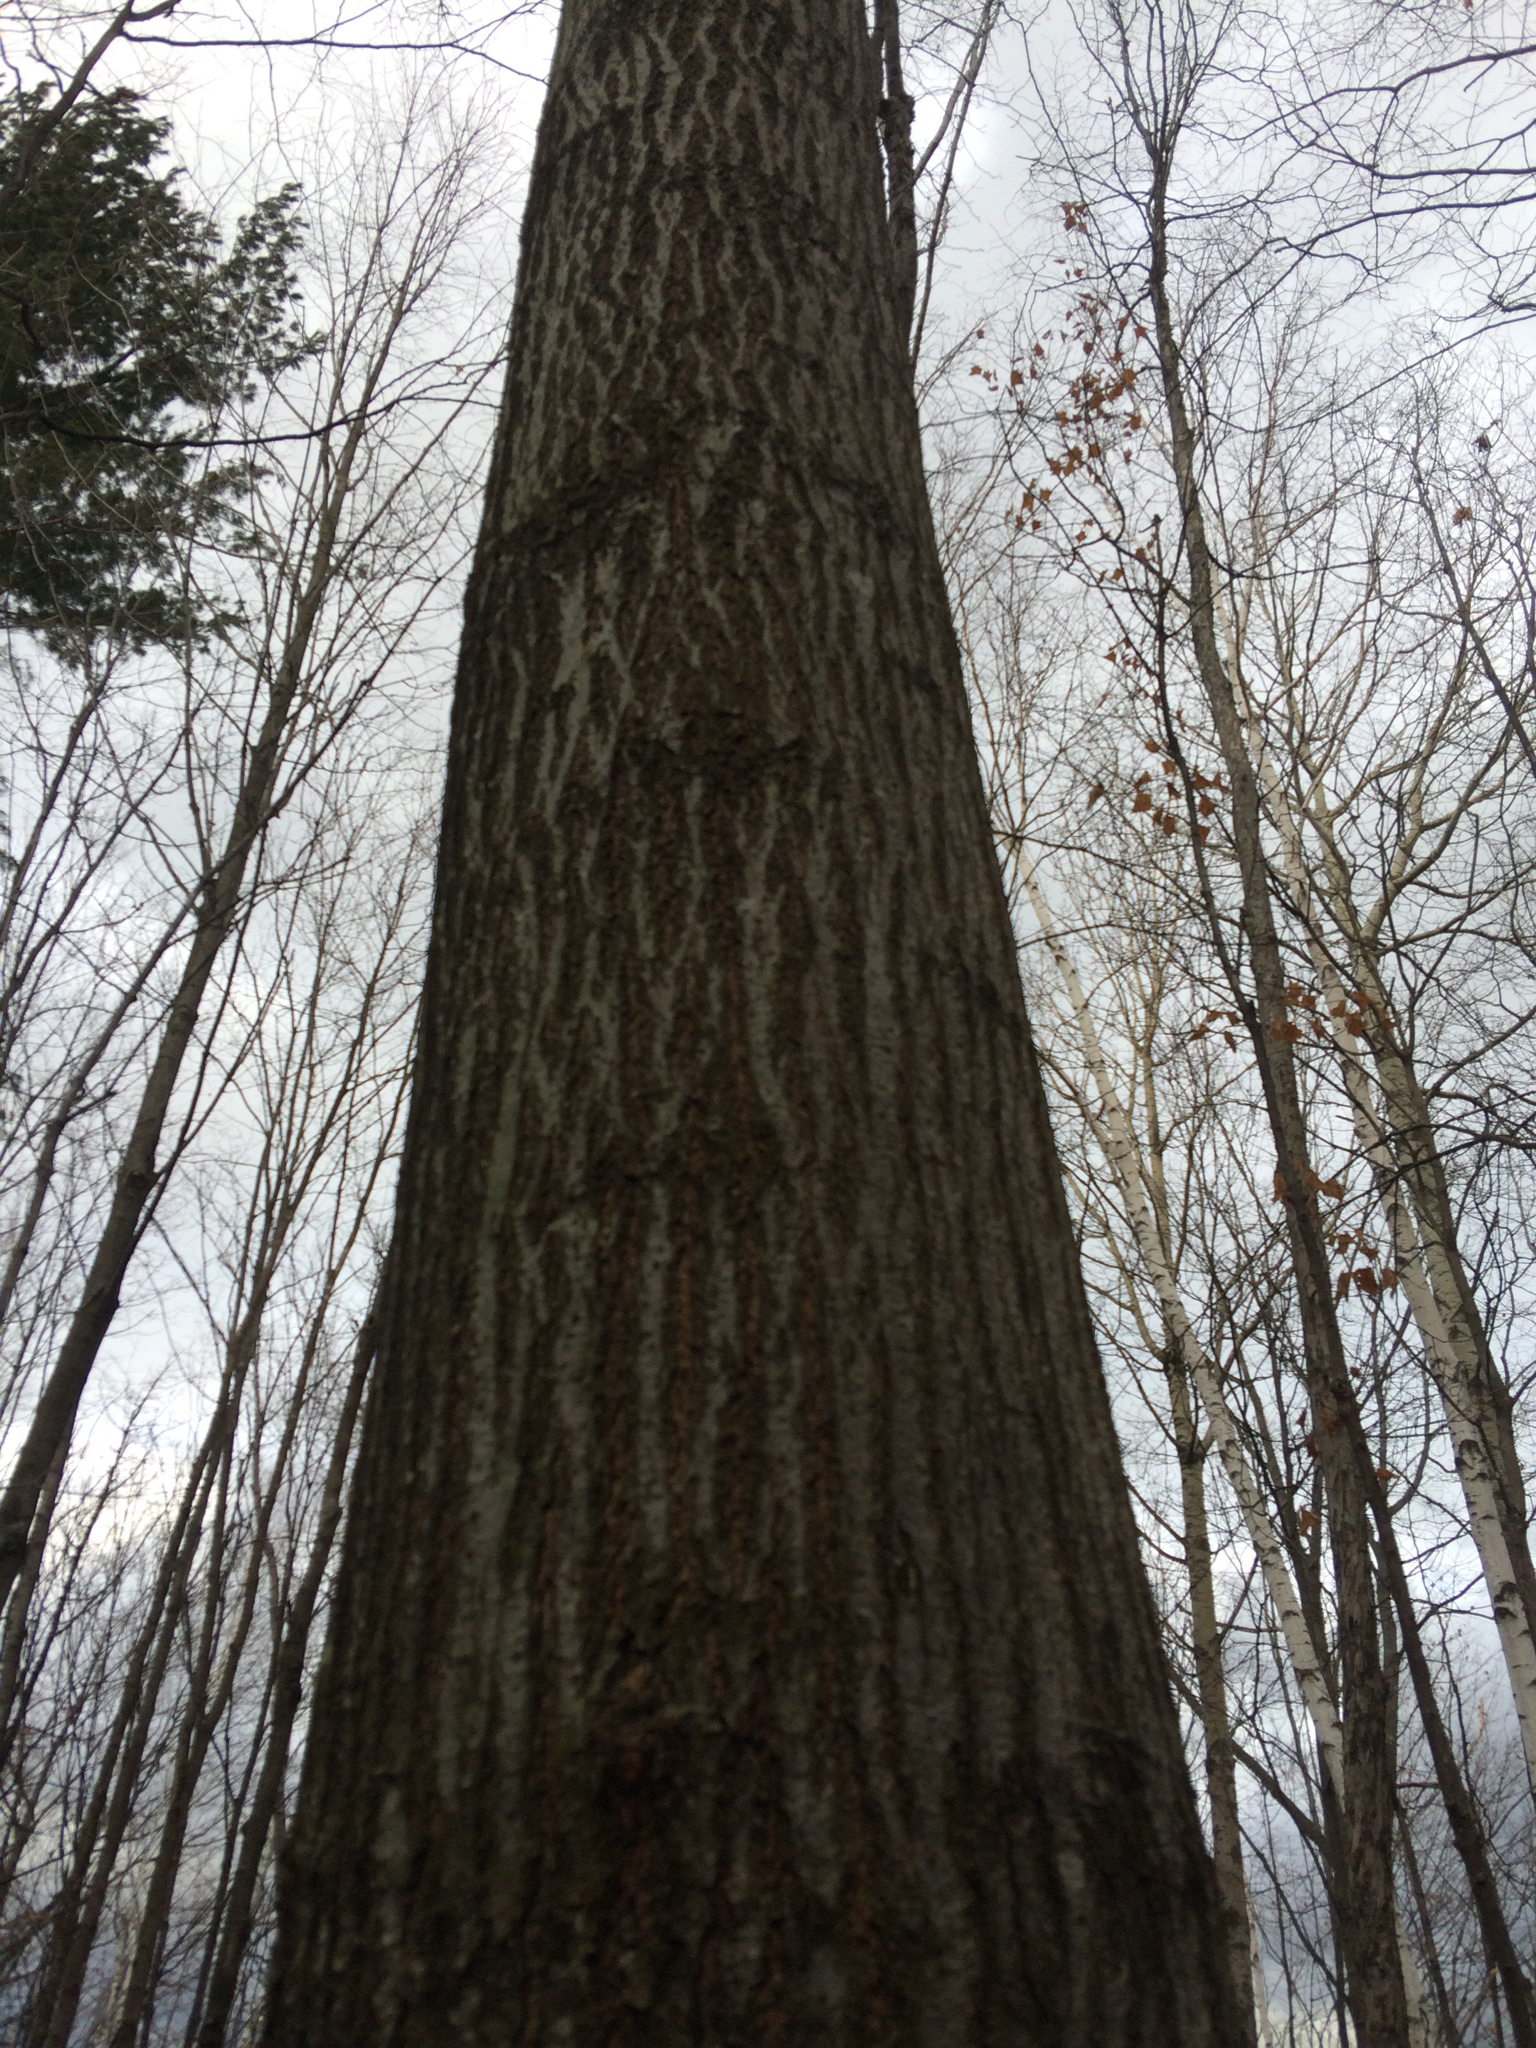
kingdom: Plantae
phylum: Tracheophyta
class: Magnoliopsida
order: Fagales
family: Fagaceae
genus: Quercus
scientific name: Quercus rubra
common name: Red oak
